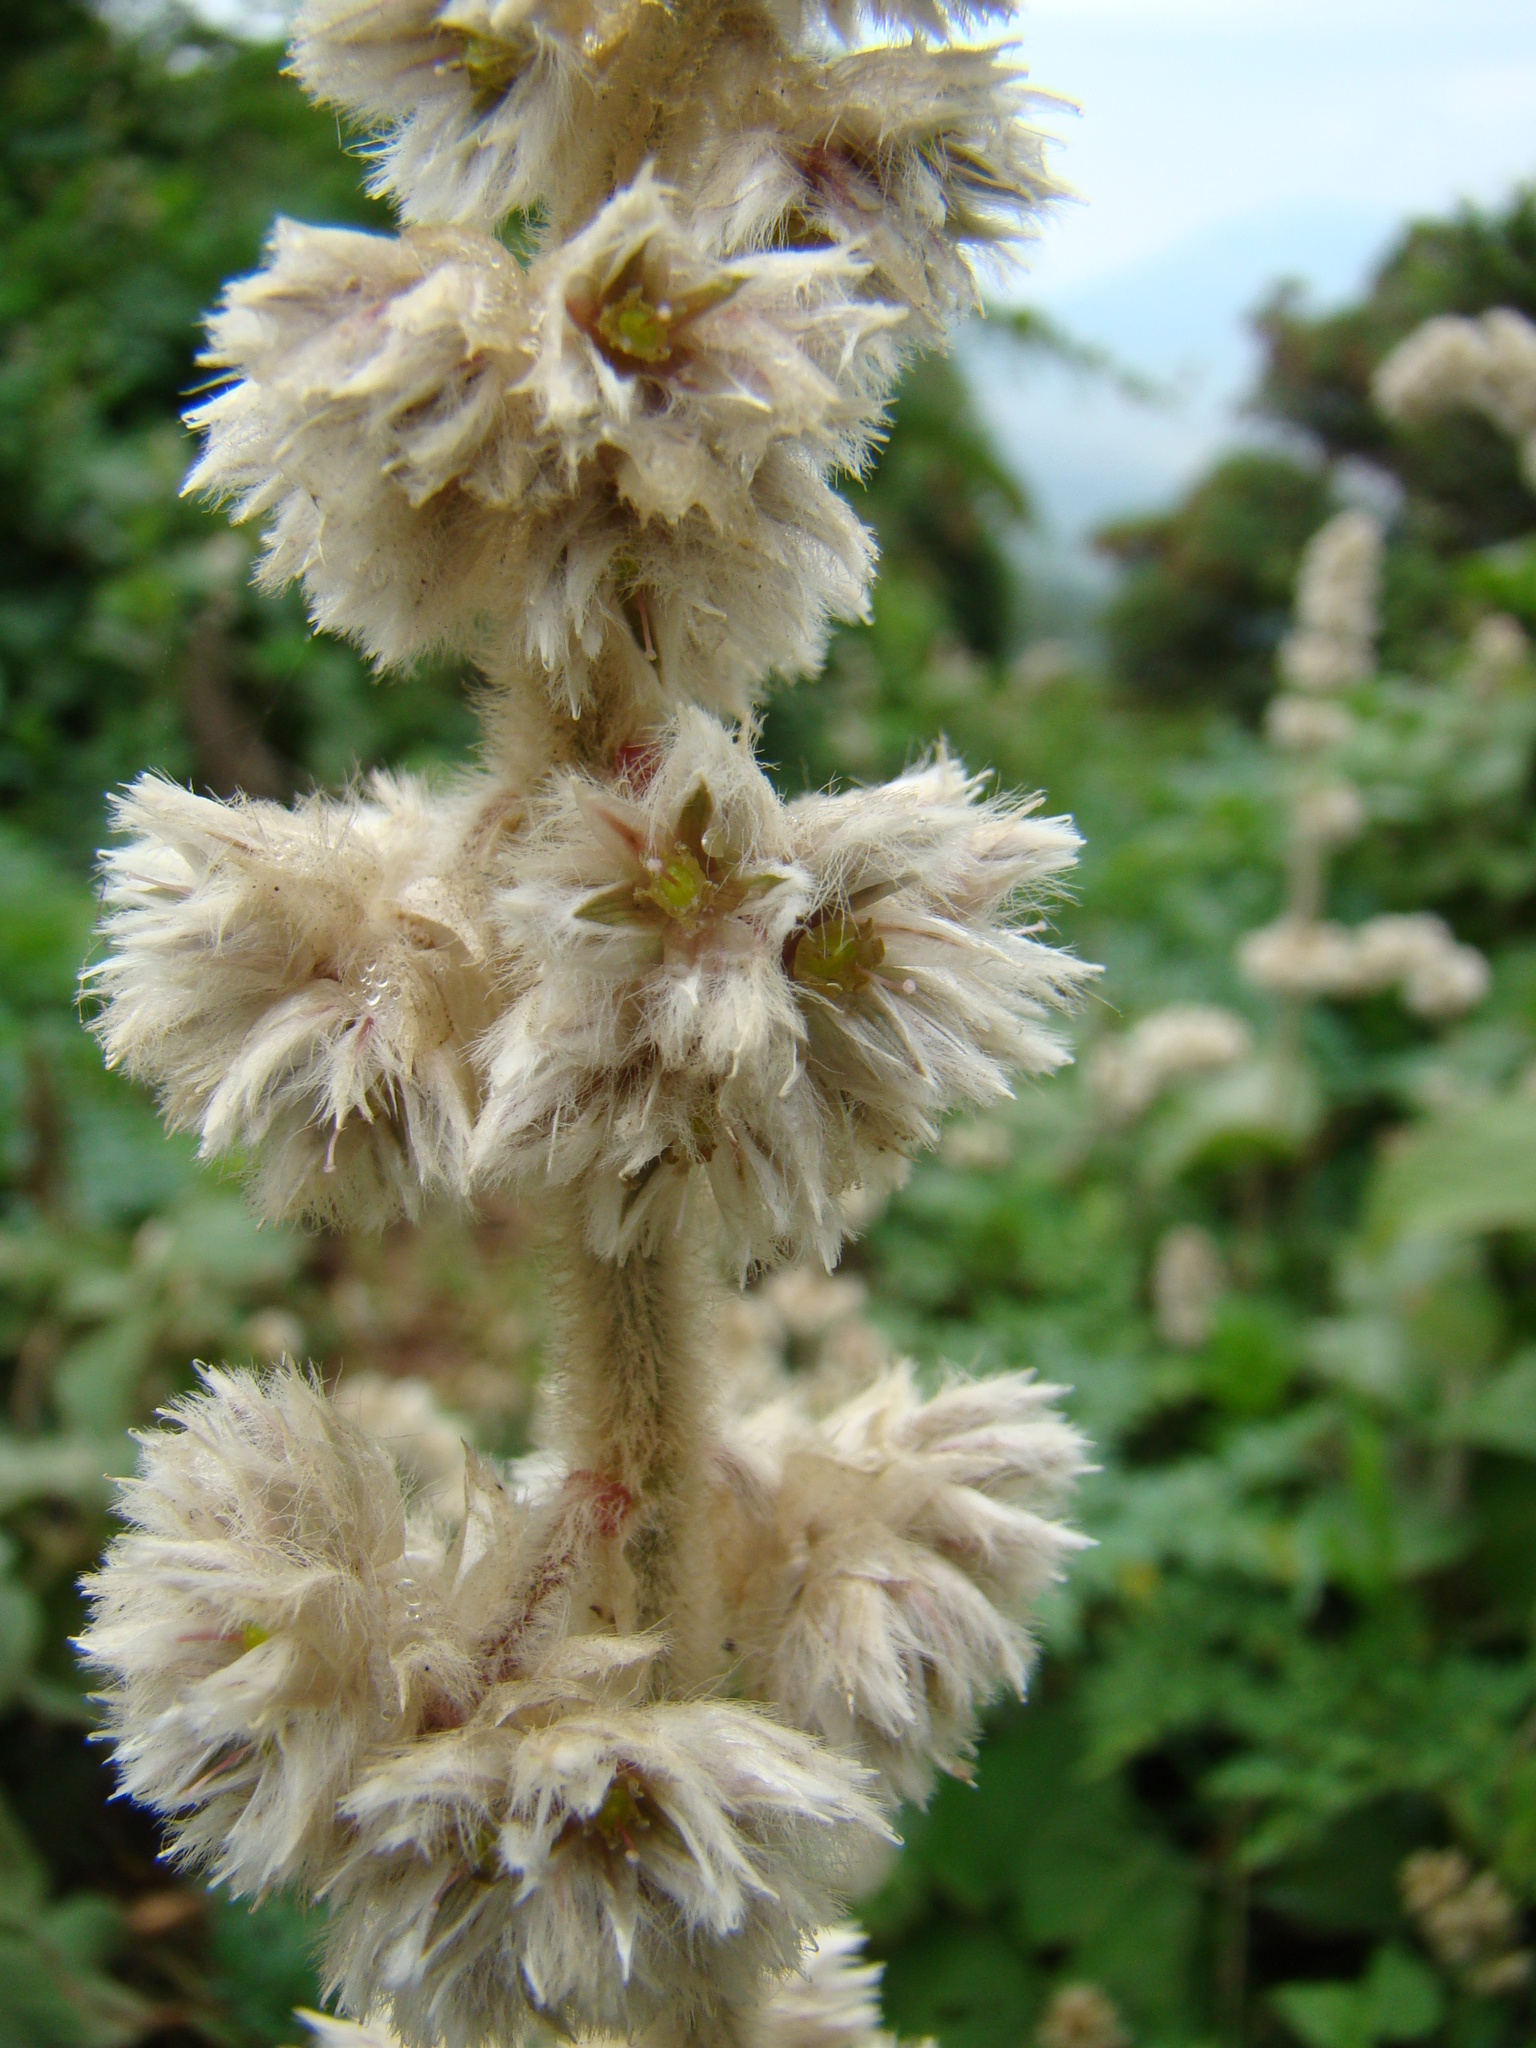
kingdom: Plantae
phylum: Tracheophyta
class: Magnoliopsida
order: Caryophyllales
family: Amaranthaceae
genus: Cyathula
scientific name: Cyathula polycephala
